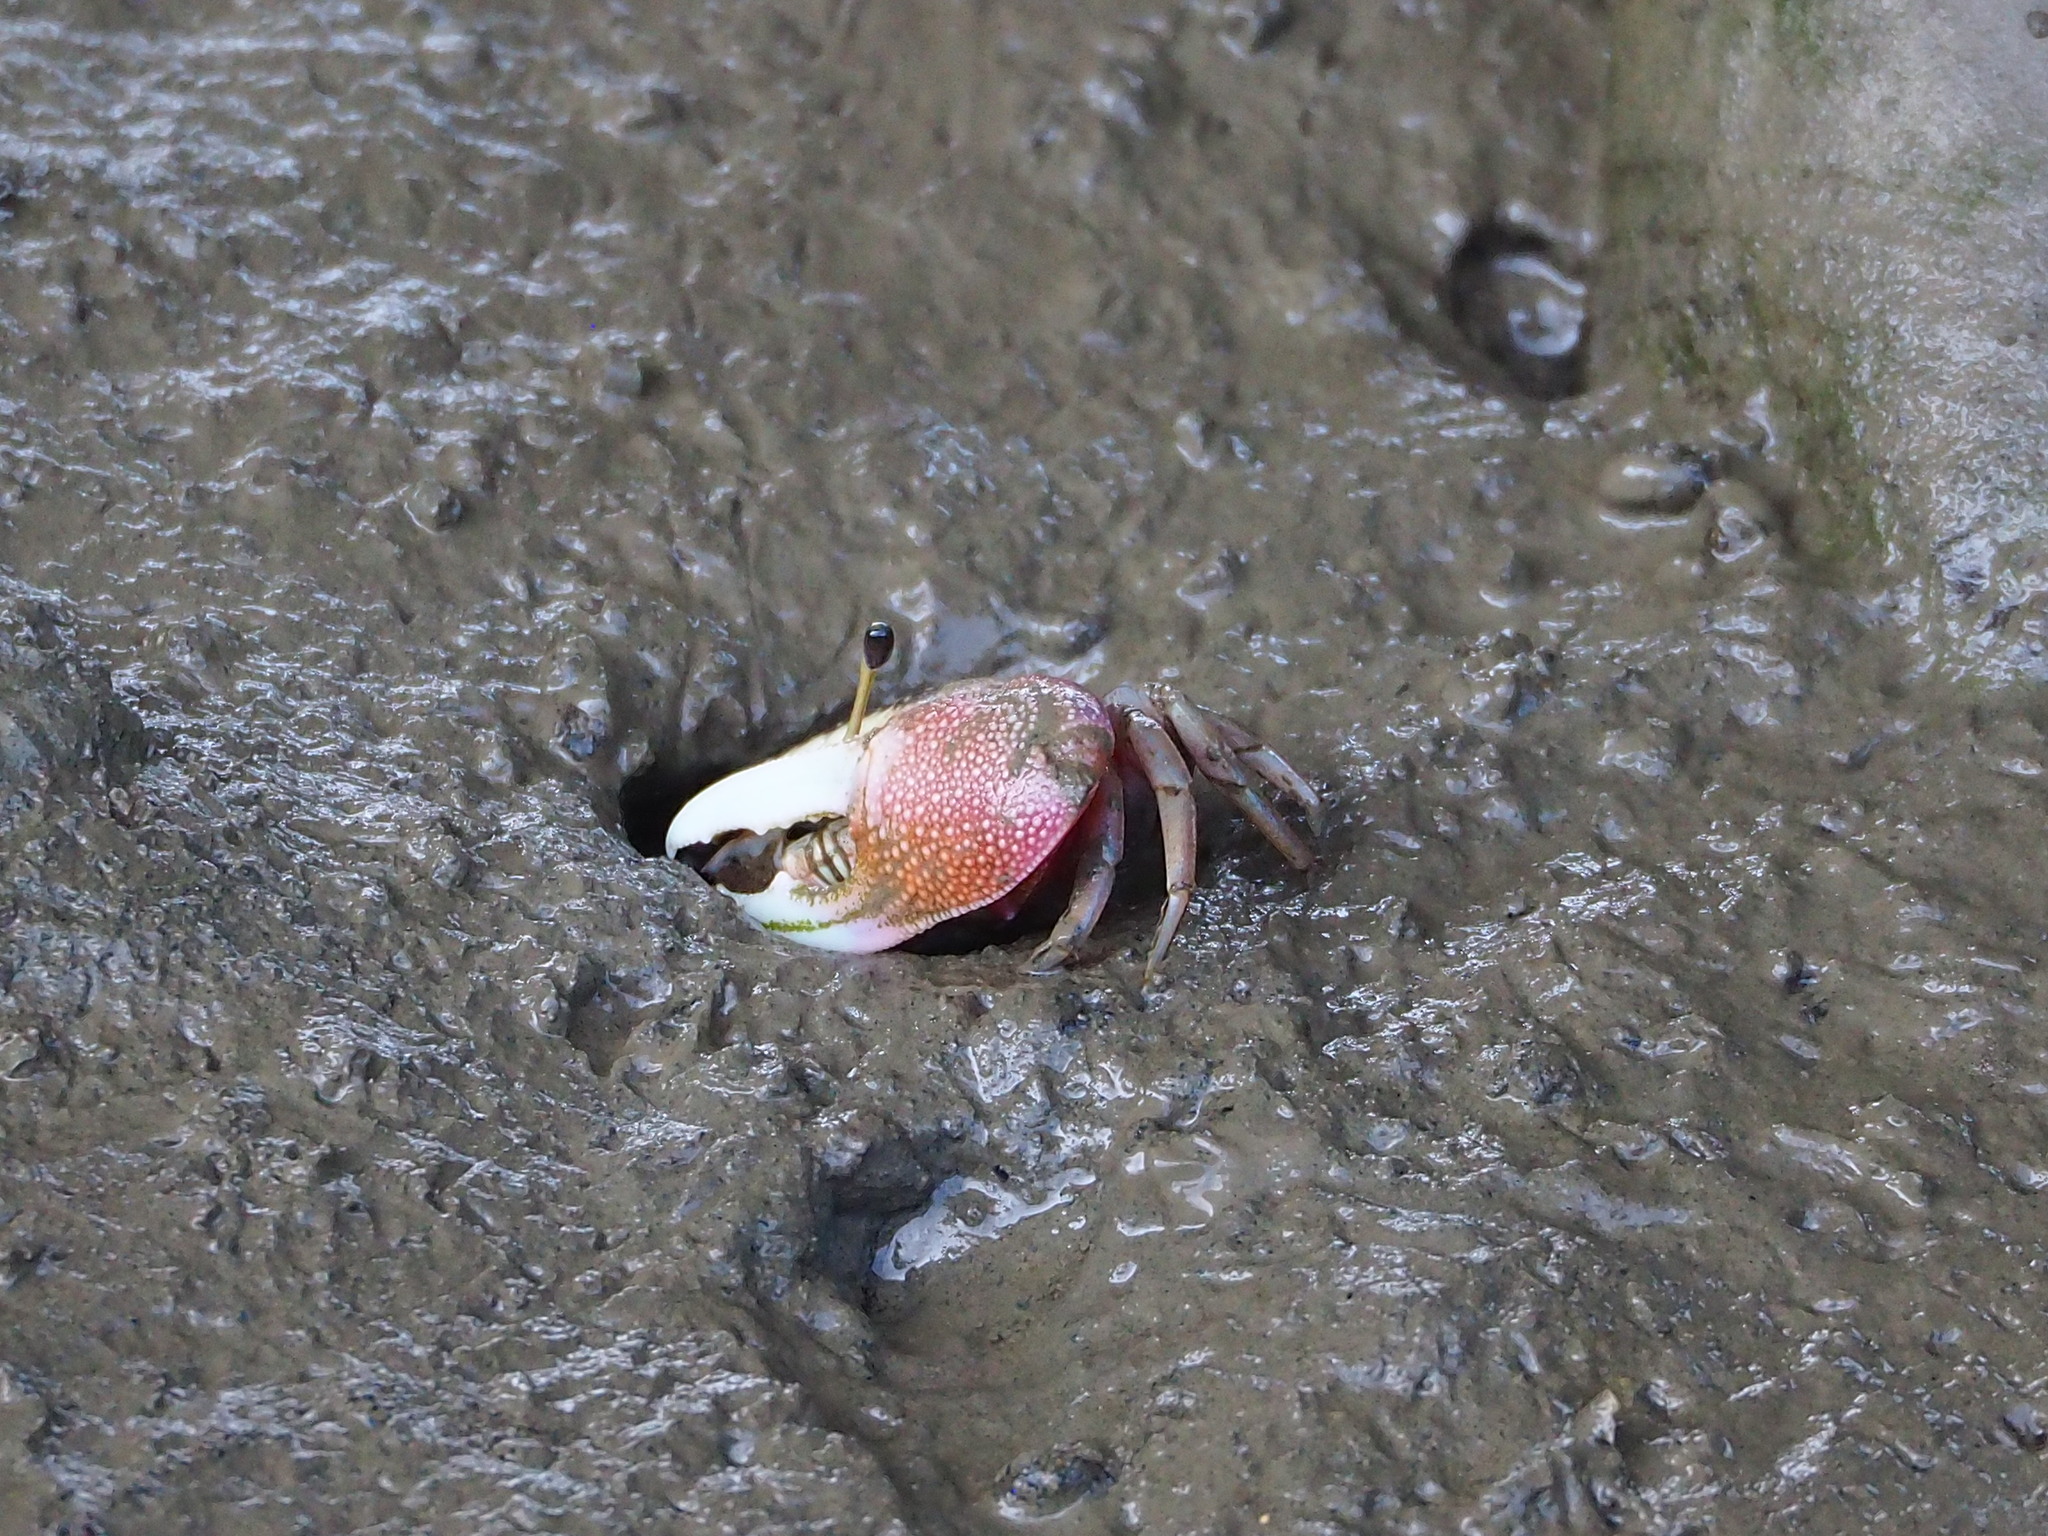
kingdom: Animalia
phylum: Arthropoda
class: Malacostraca
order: Decapoda
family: Ocypodidae
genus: Tubuca
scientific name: Tubuca arcuata
